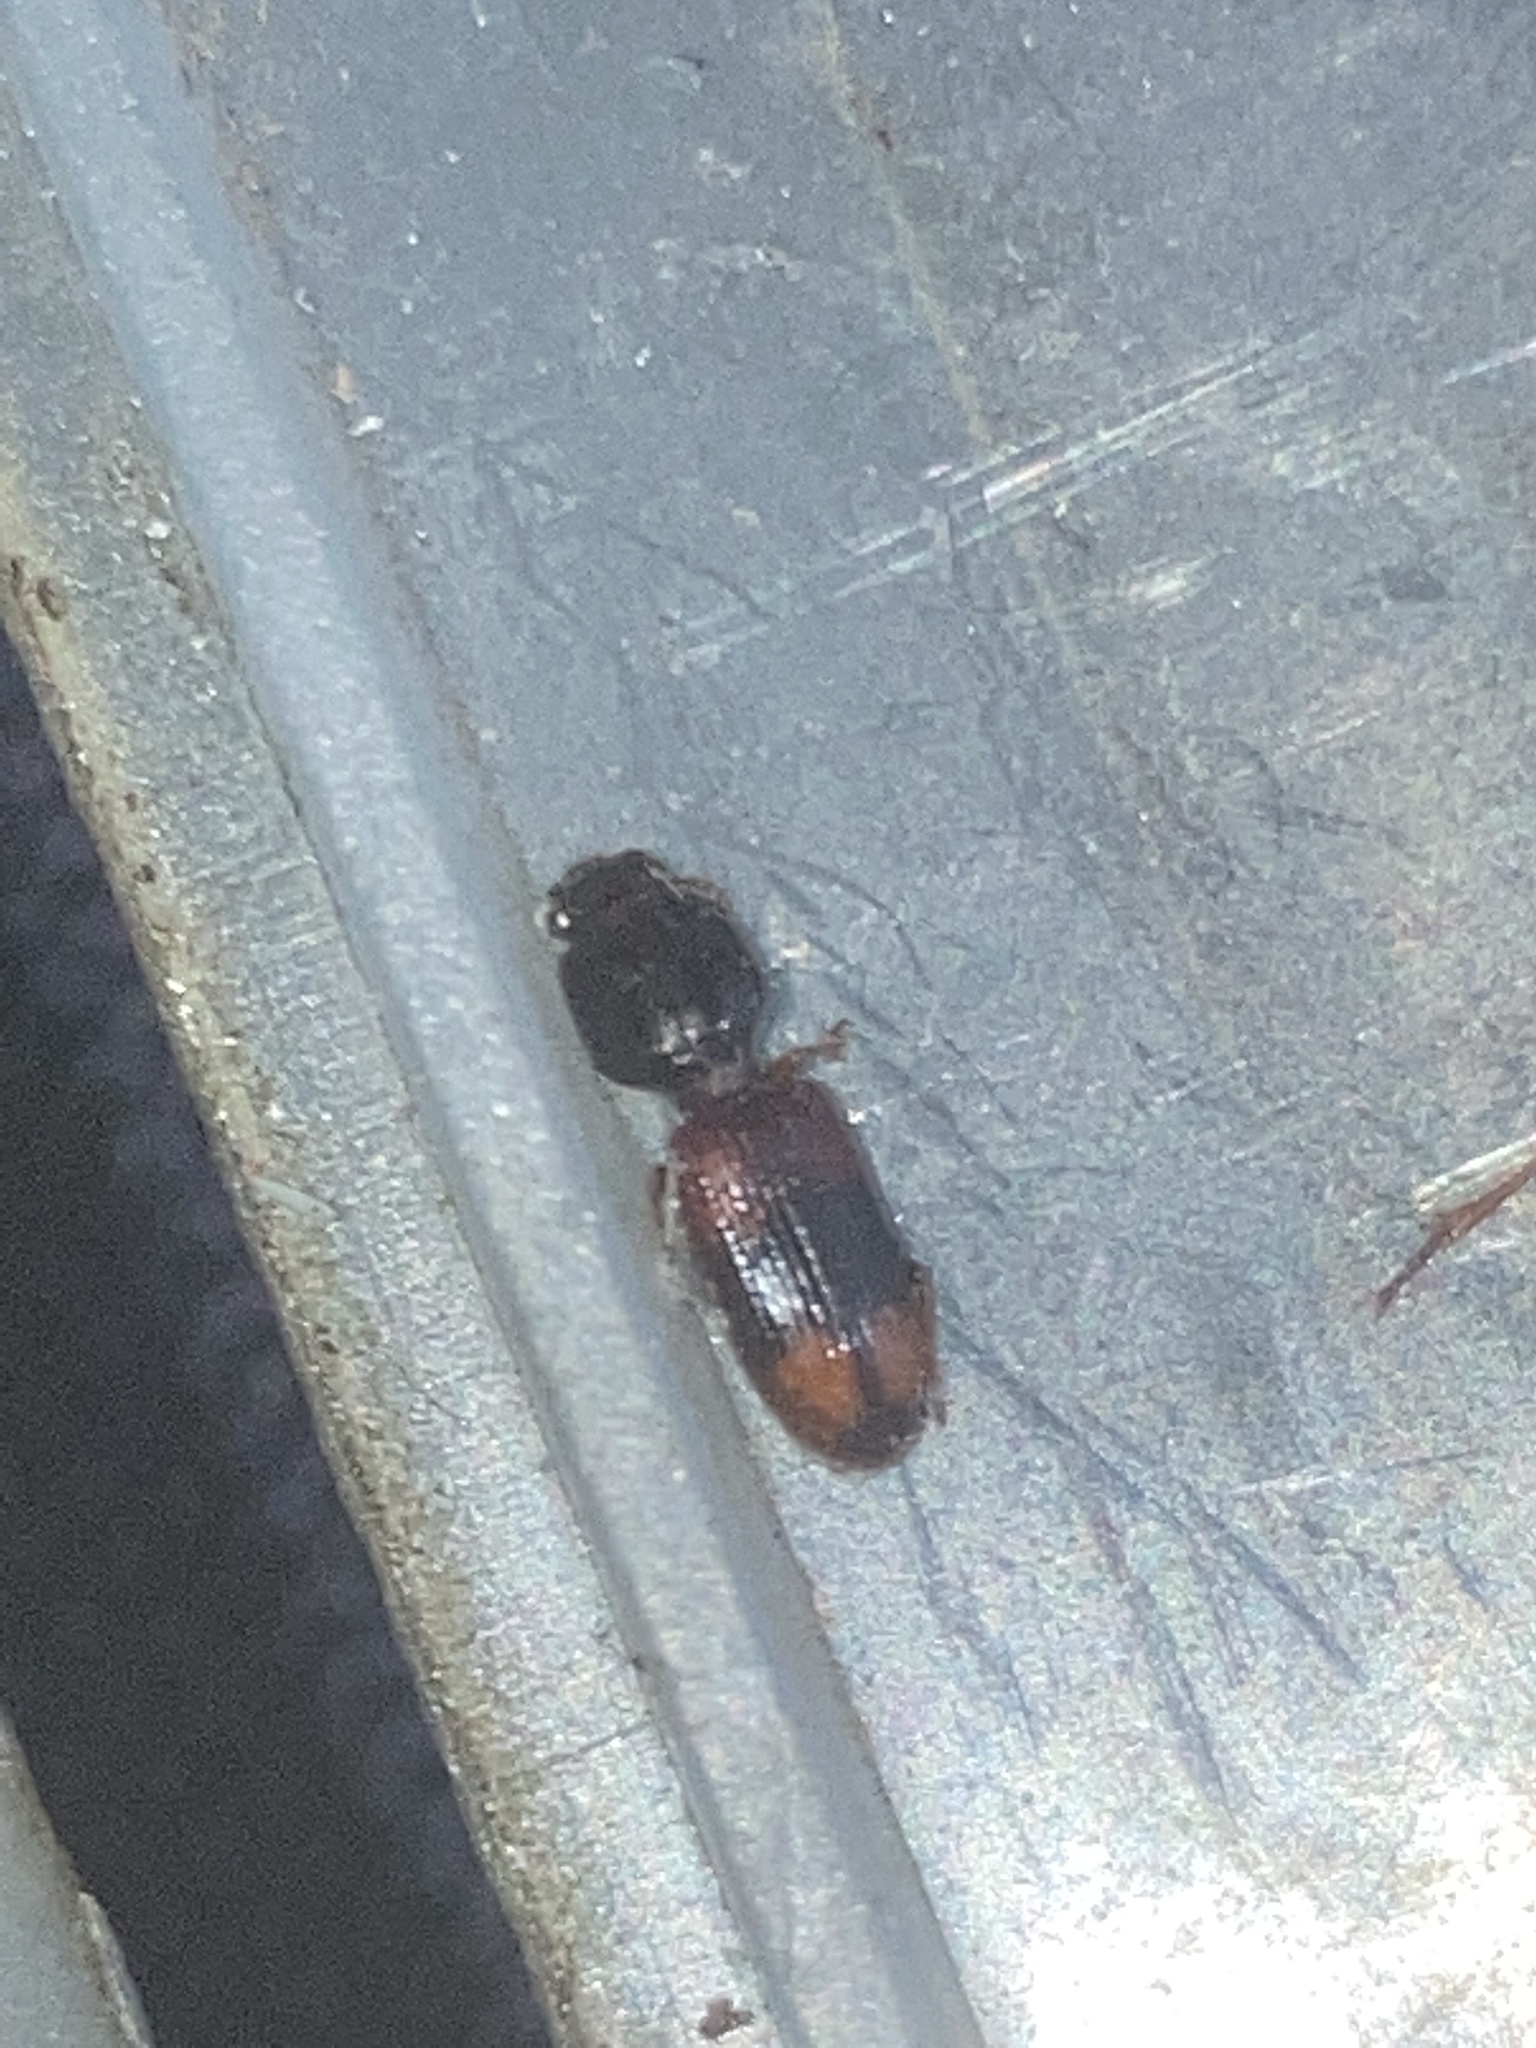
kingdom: Animalia
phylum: Arthropoda
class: Insecta
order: Coleoptera
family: Carabidae
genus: Clivina
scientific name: Clivina bipustulata
